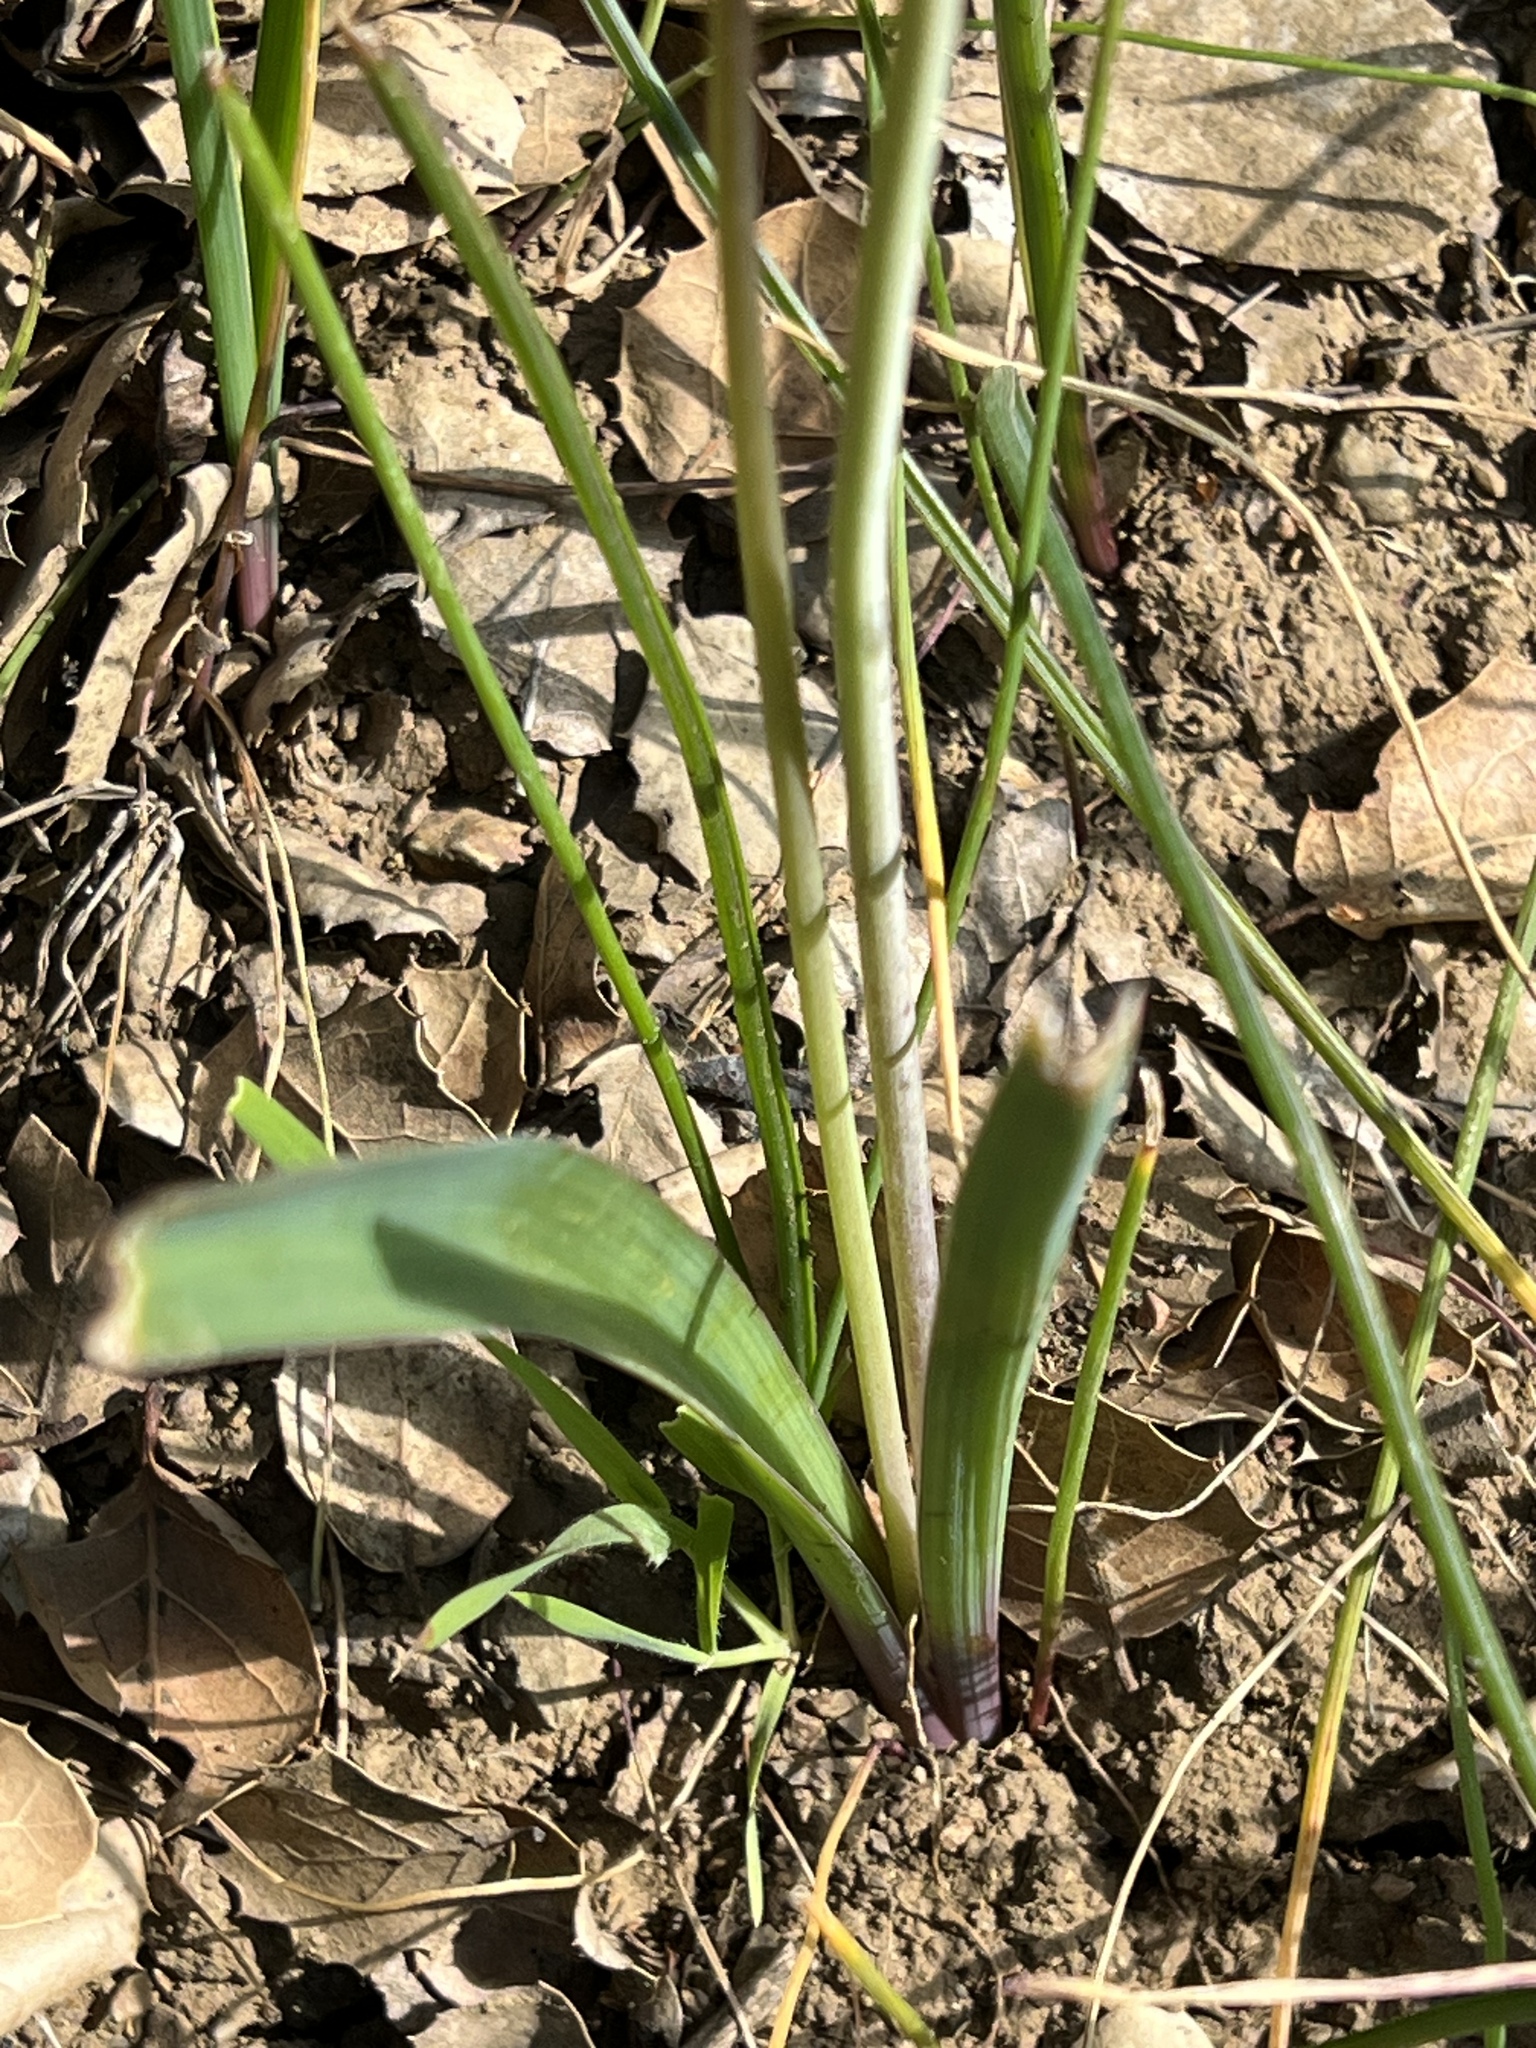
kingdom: Plantae
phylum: Tracheophyta
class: Liliopsida
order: Asparagales
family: Asparagaceae
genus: Dipterostemon
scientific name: Dipterostemon capitatus
